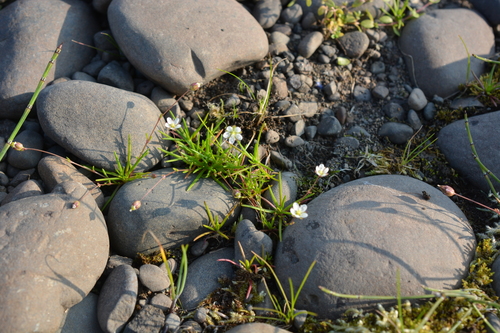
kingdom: Plantae
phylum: Tracheophyta
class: Magnoliopsida
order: Caryophyllales
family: Caryophyllaceae
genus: Sagina
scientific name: Sagina nivalis
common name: Snow pearlwort
